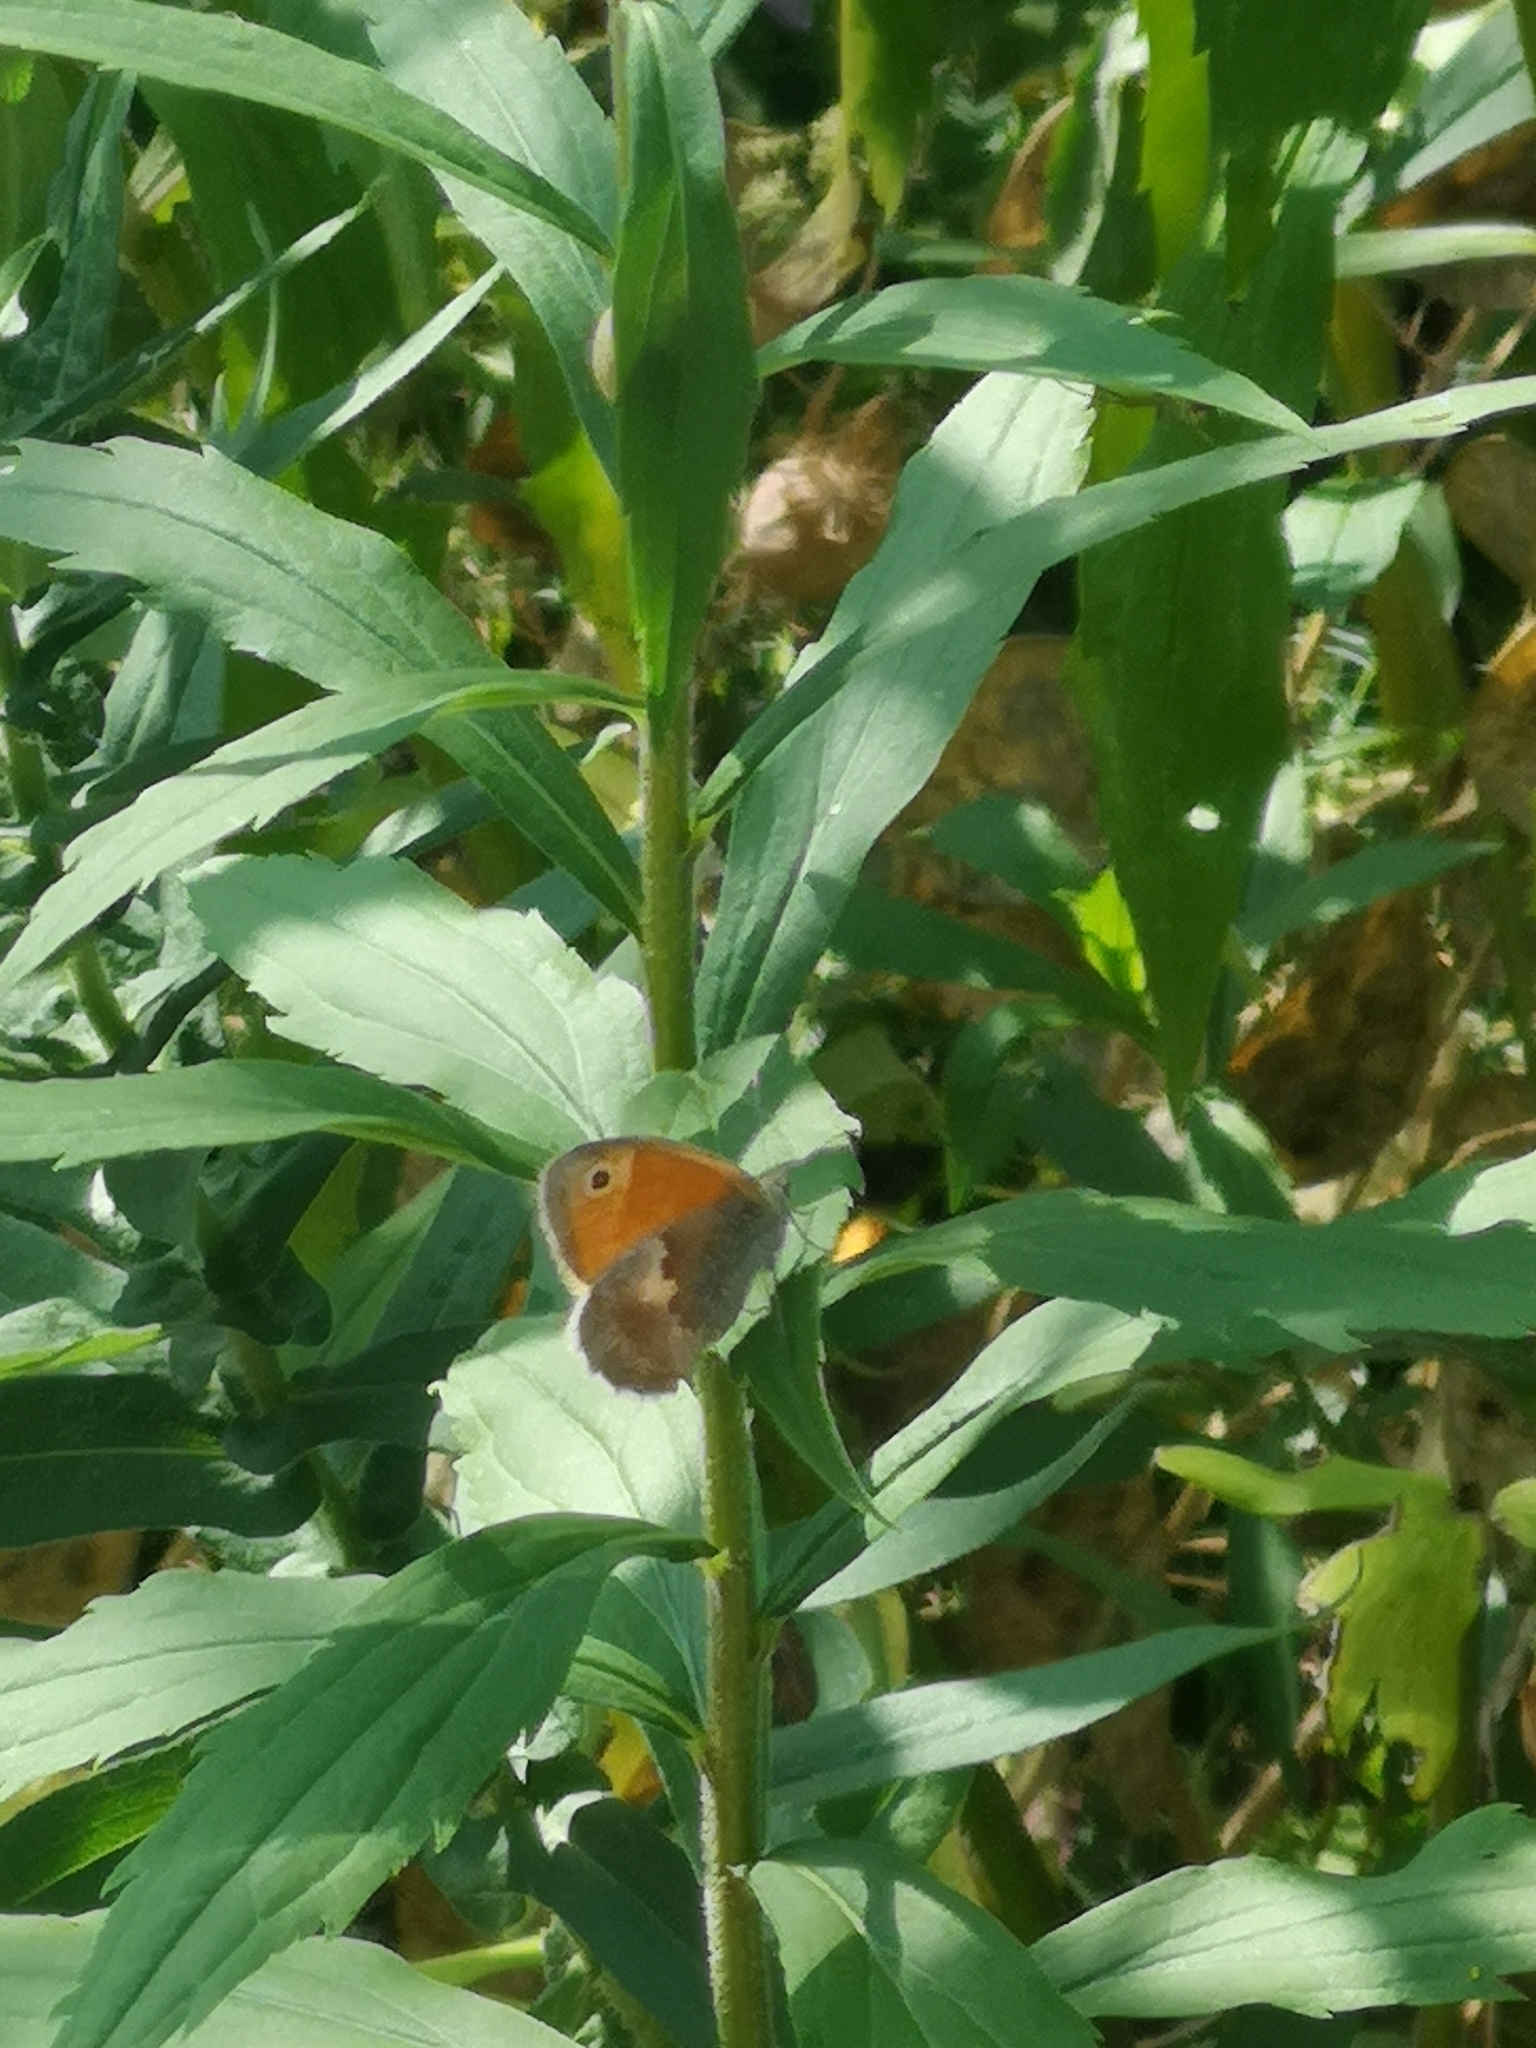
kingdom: Animalia
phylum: Arthropoda
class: Insecta
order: Lepidoptera
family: Nymphalidae
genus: Coenonympha
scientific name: Coenonympha pamphilus
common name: Small heath
